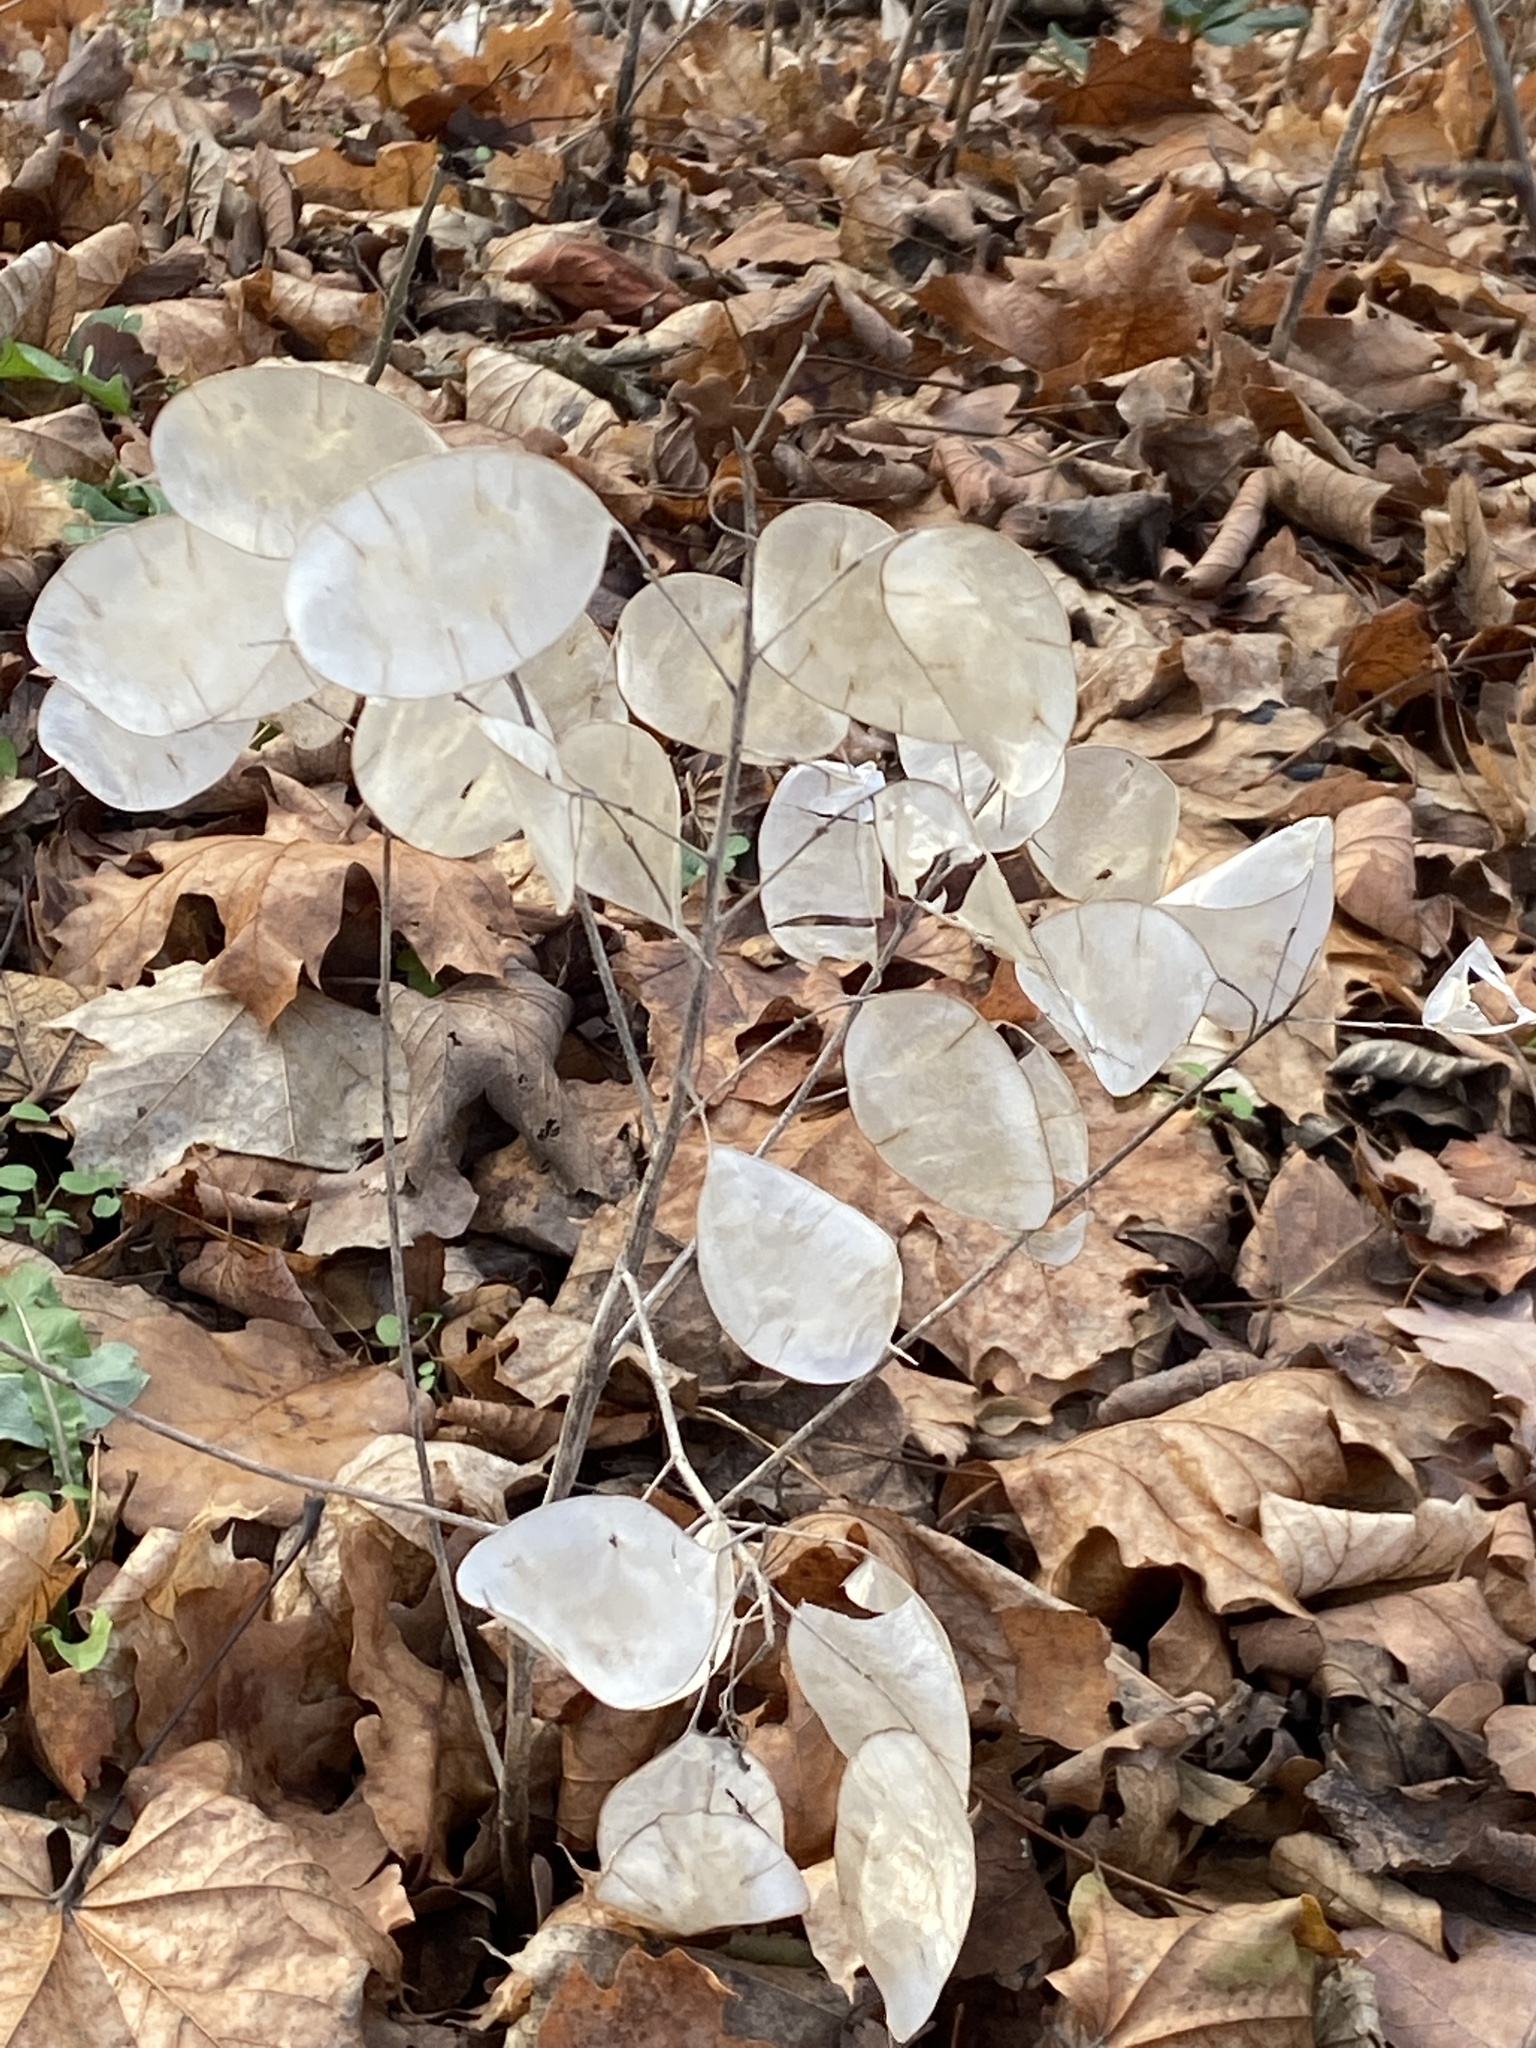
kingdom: Plantae
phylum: Tracheophyta
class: Magnoliopsida
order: Brassicales
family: Brassicaceae
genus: Lunaria
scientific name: Lunaria annua
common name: Honesty
